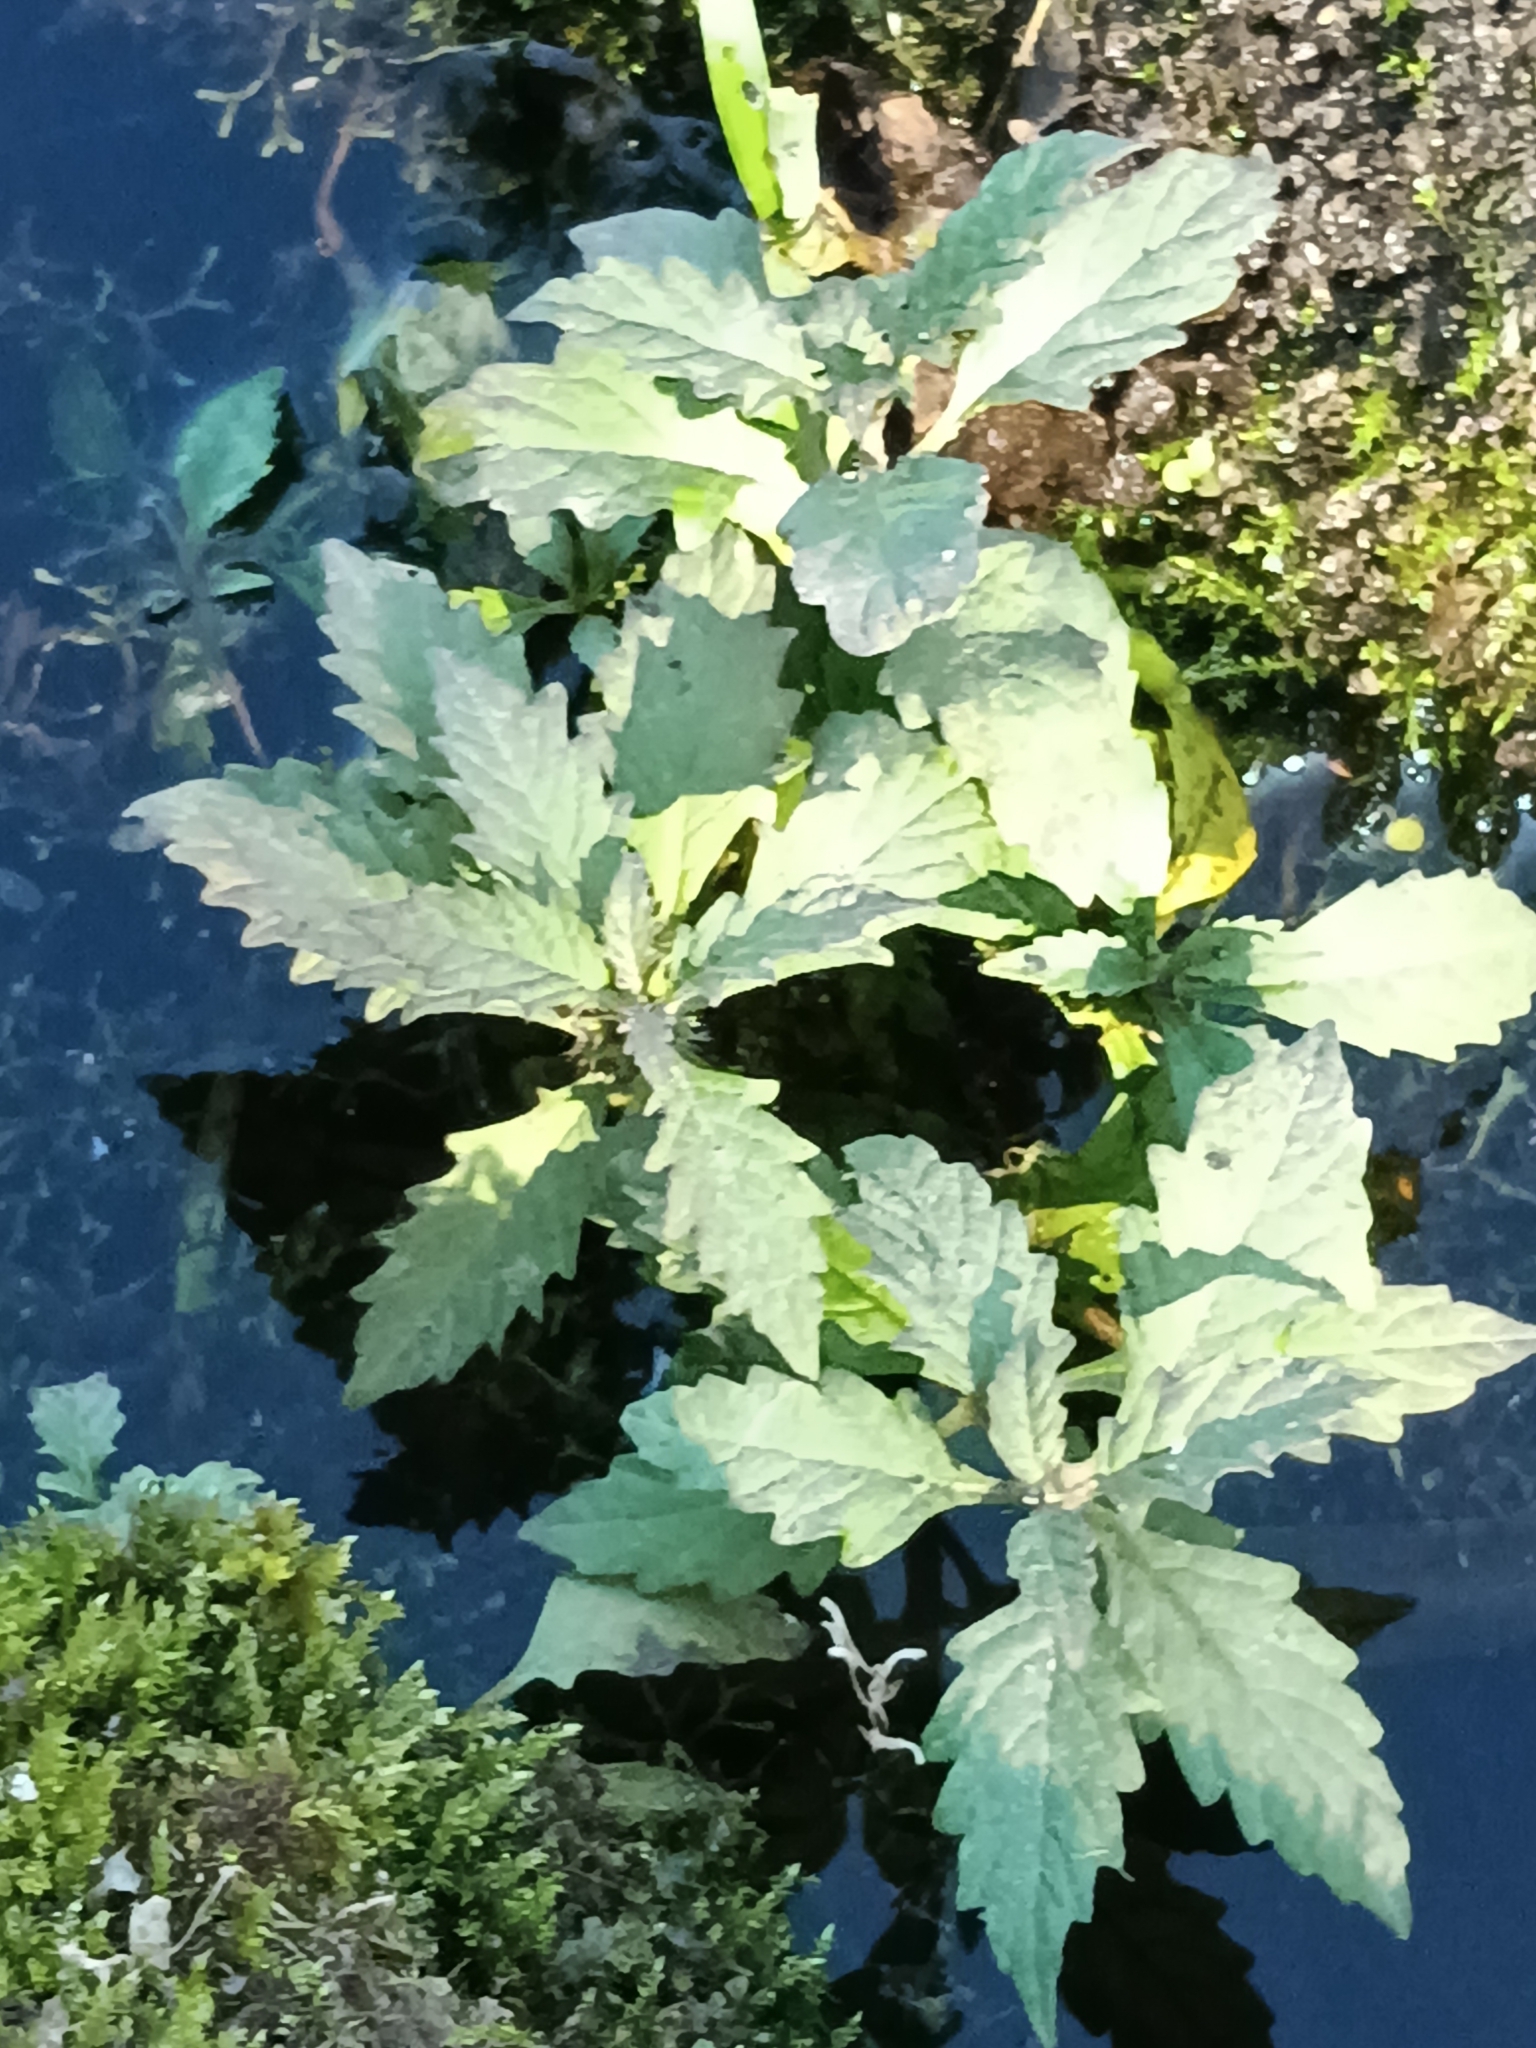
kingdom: Plantae
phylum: Tracheophyta
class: Magnoliopsida
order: Lamiales
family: Lamiaceae
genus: Lycopus
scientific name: Lycopus europaeus
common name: European bugleweed
